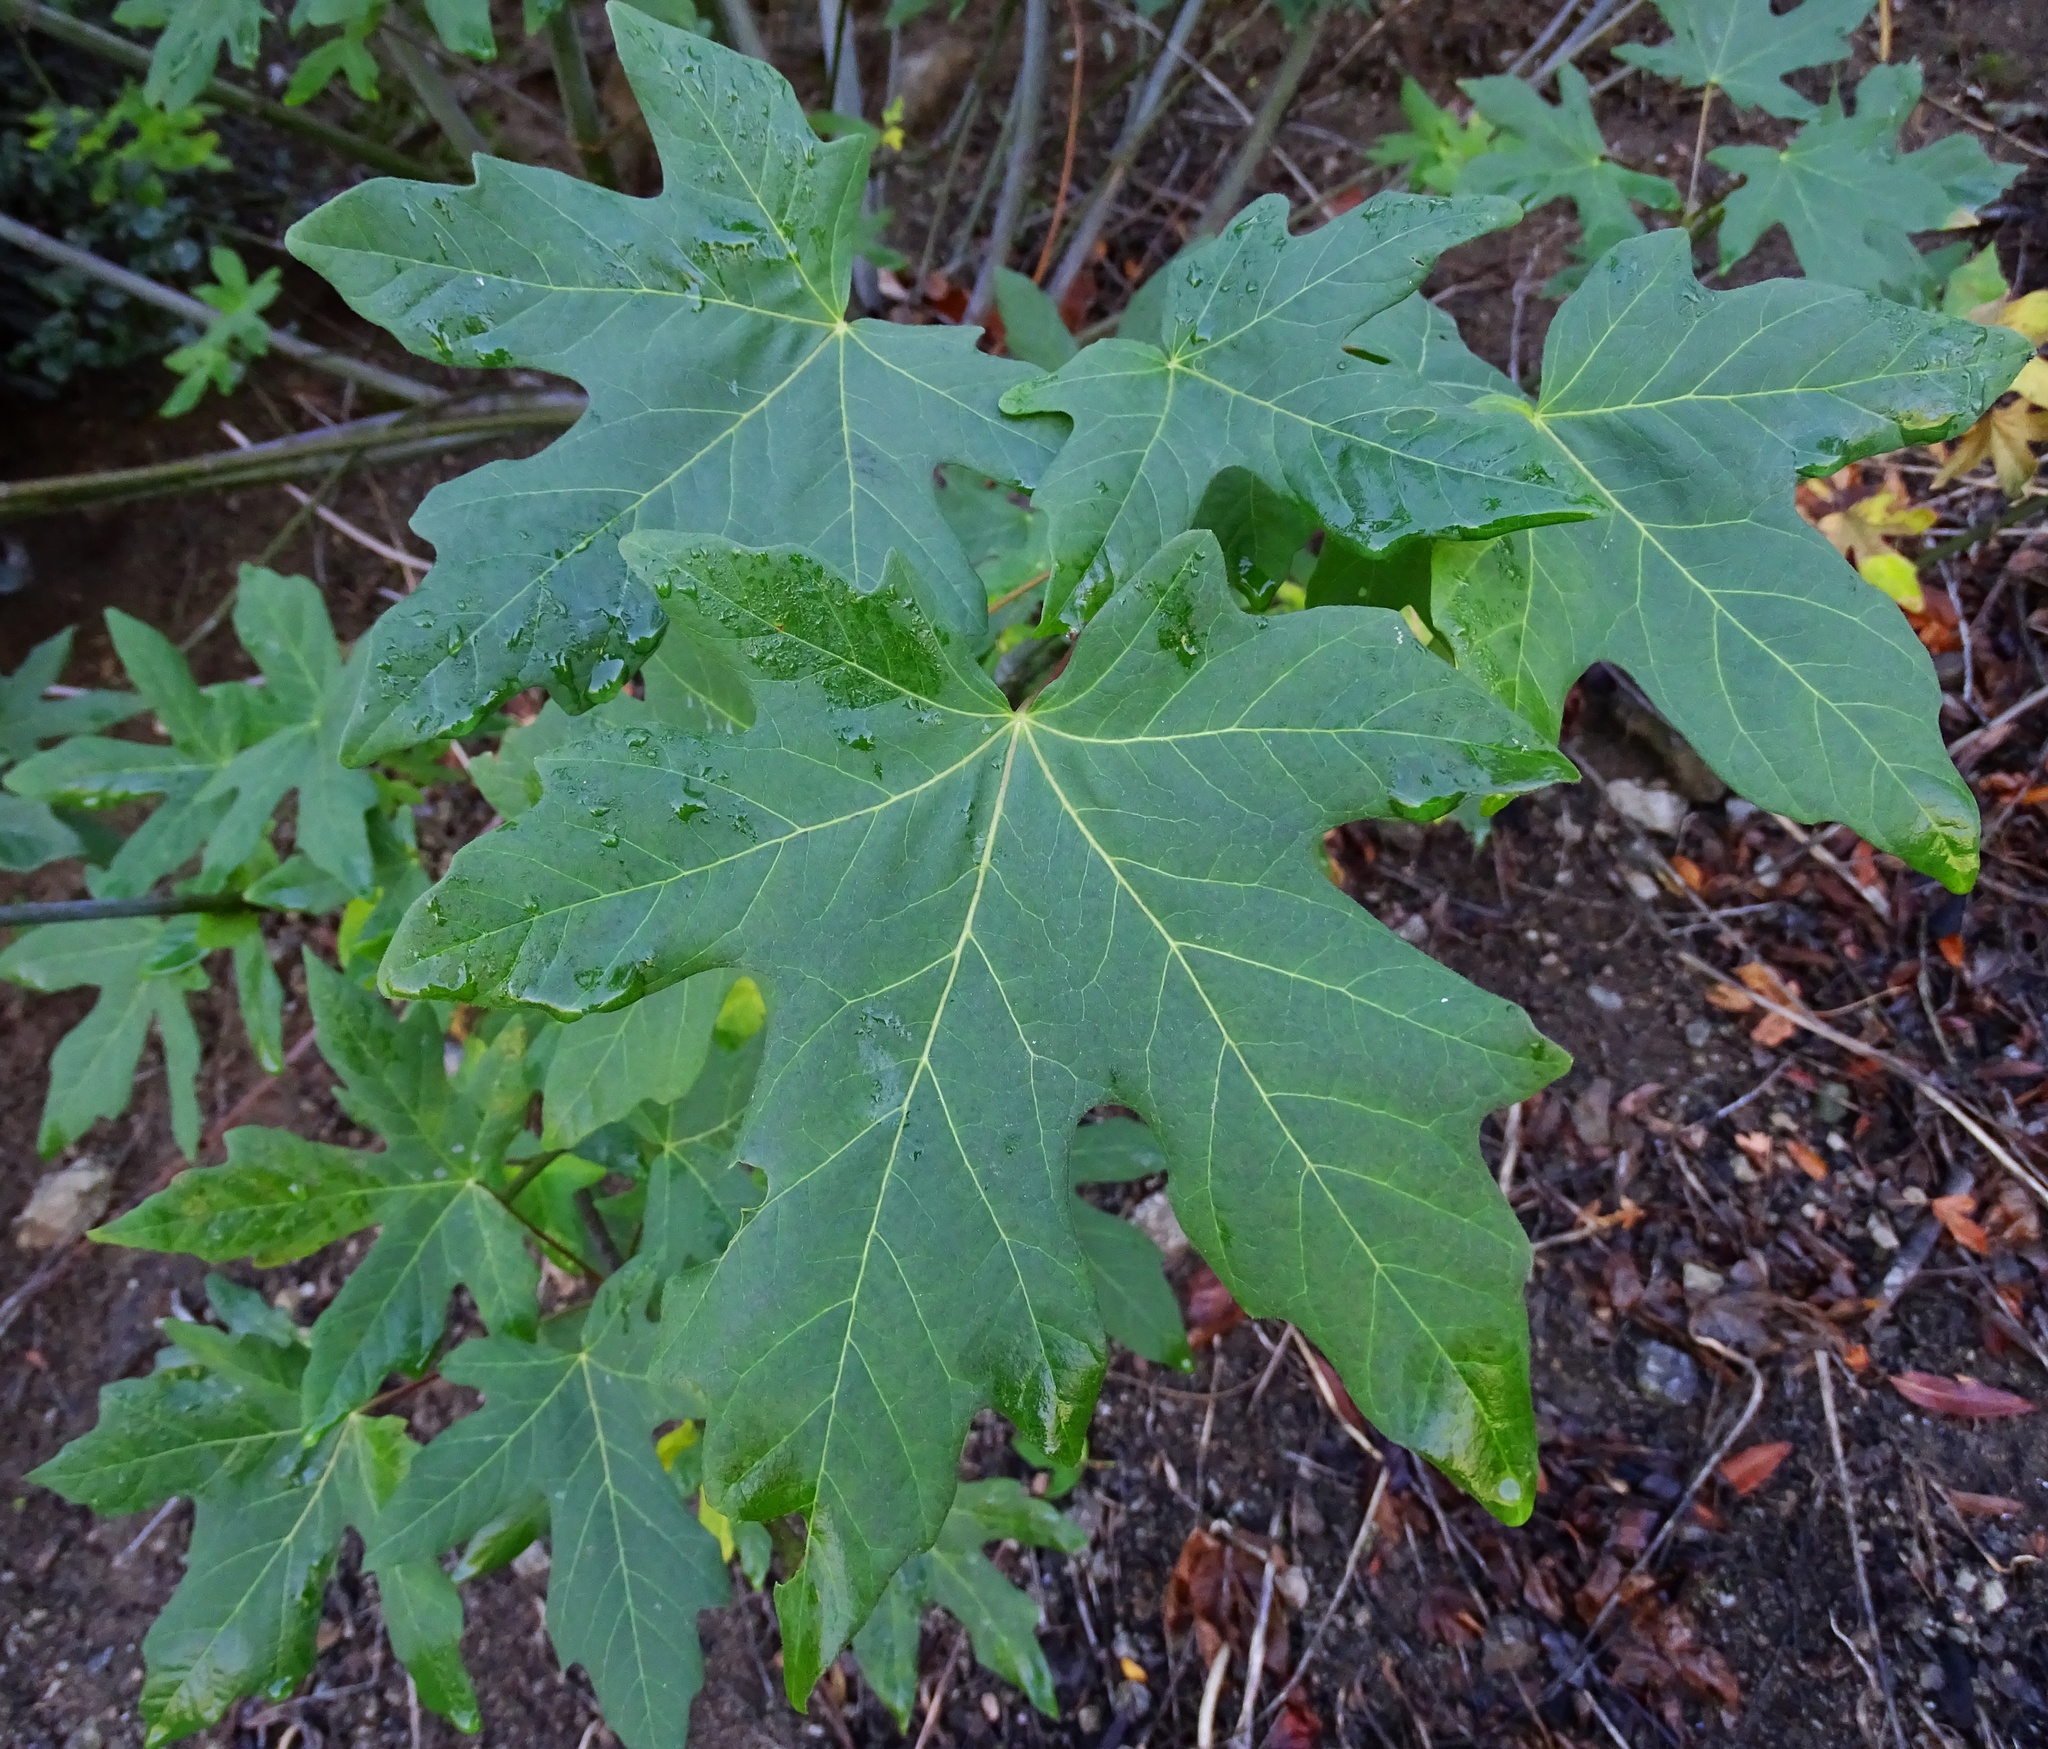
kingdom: Plantae
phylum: Tracheophyta
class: Magnoliopsida
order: Sapindales
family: Sapindaceae
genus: Acer
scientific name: Acer macrophyllum
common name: Oregon maple
